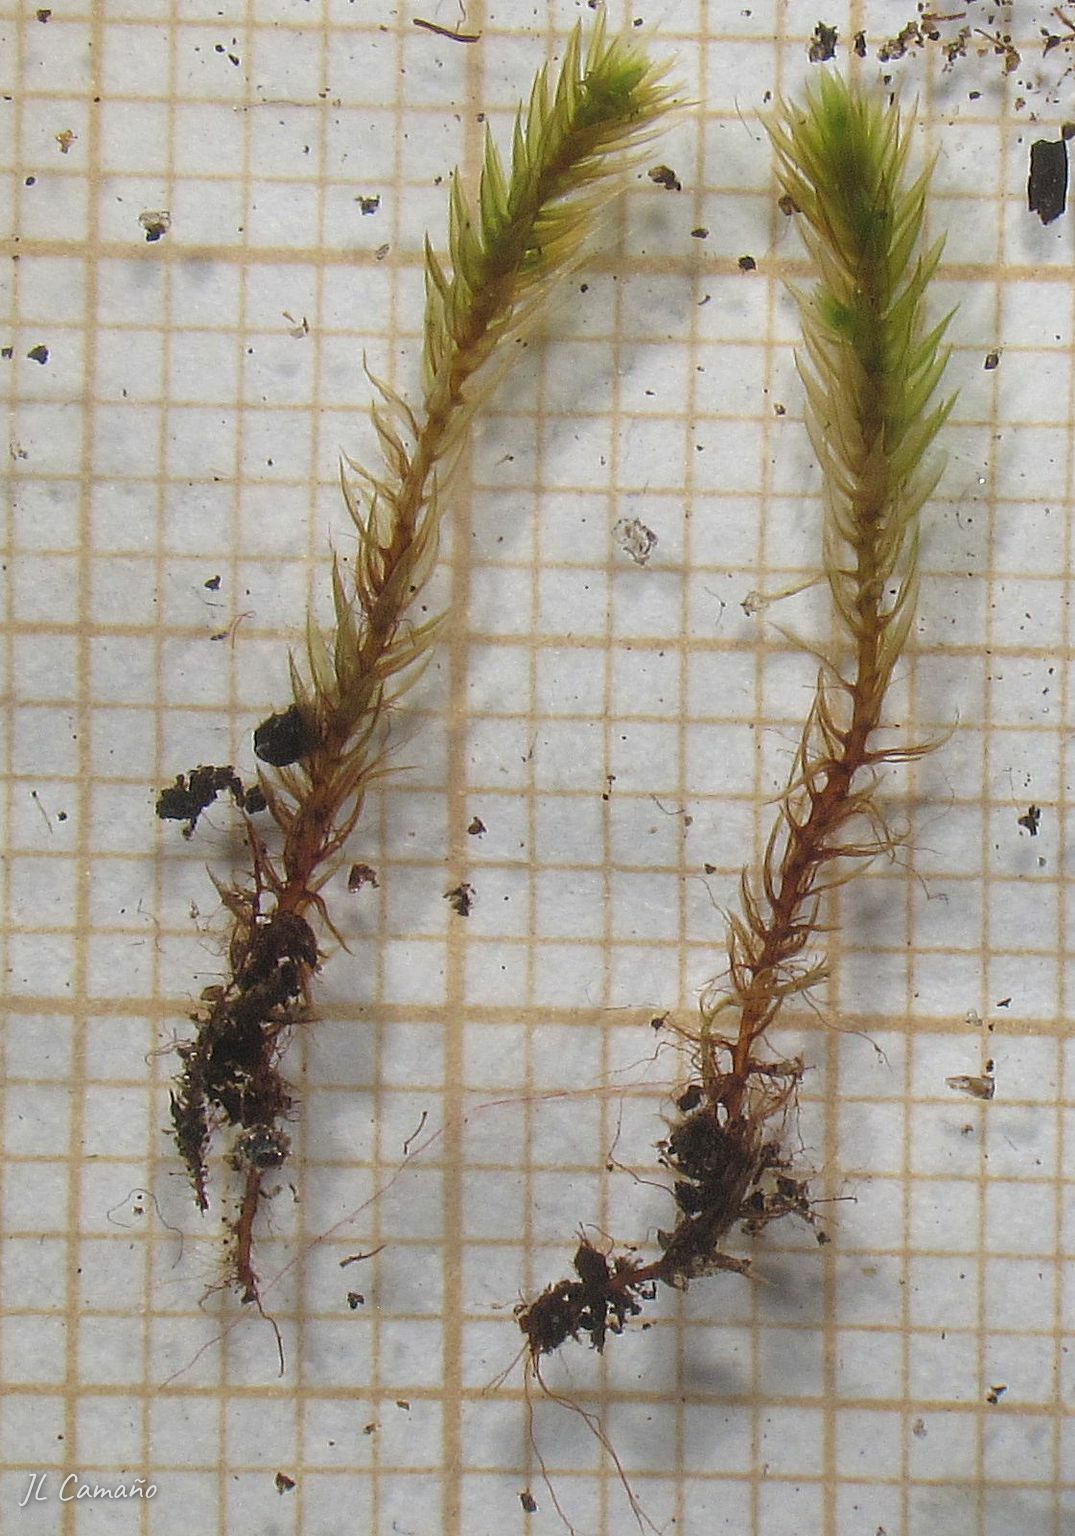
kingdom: Plantae
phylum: Bryophyta
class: Bryopsida
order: Bryales
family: Bryaceae
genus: Imbribryum
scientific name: Imbribryum mildeanum
